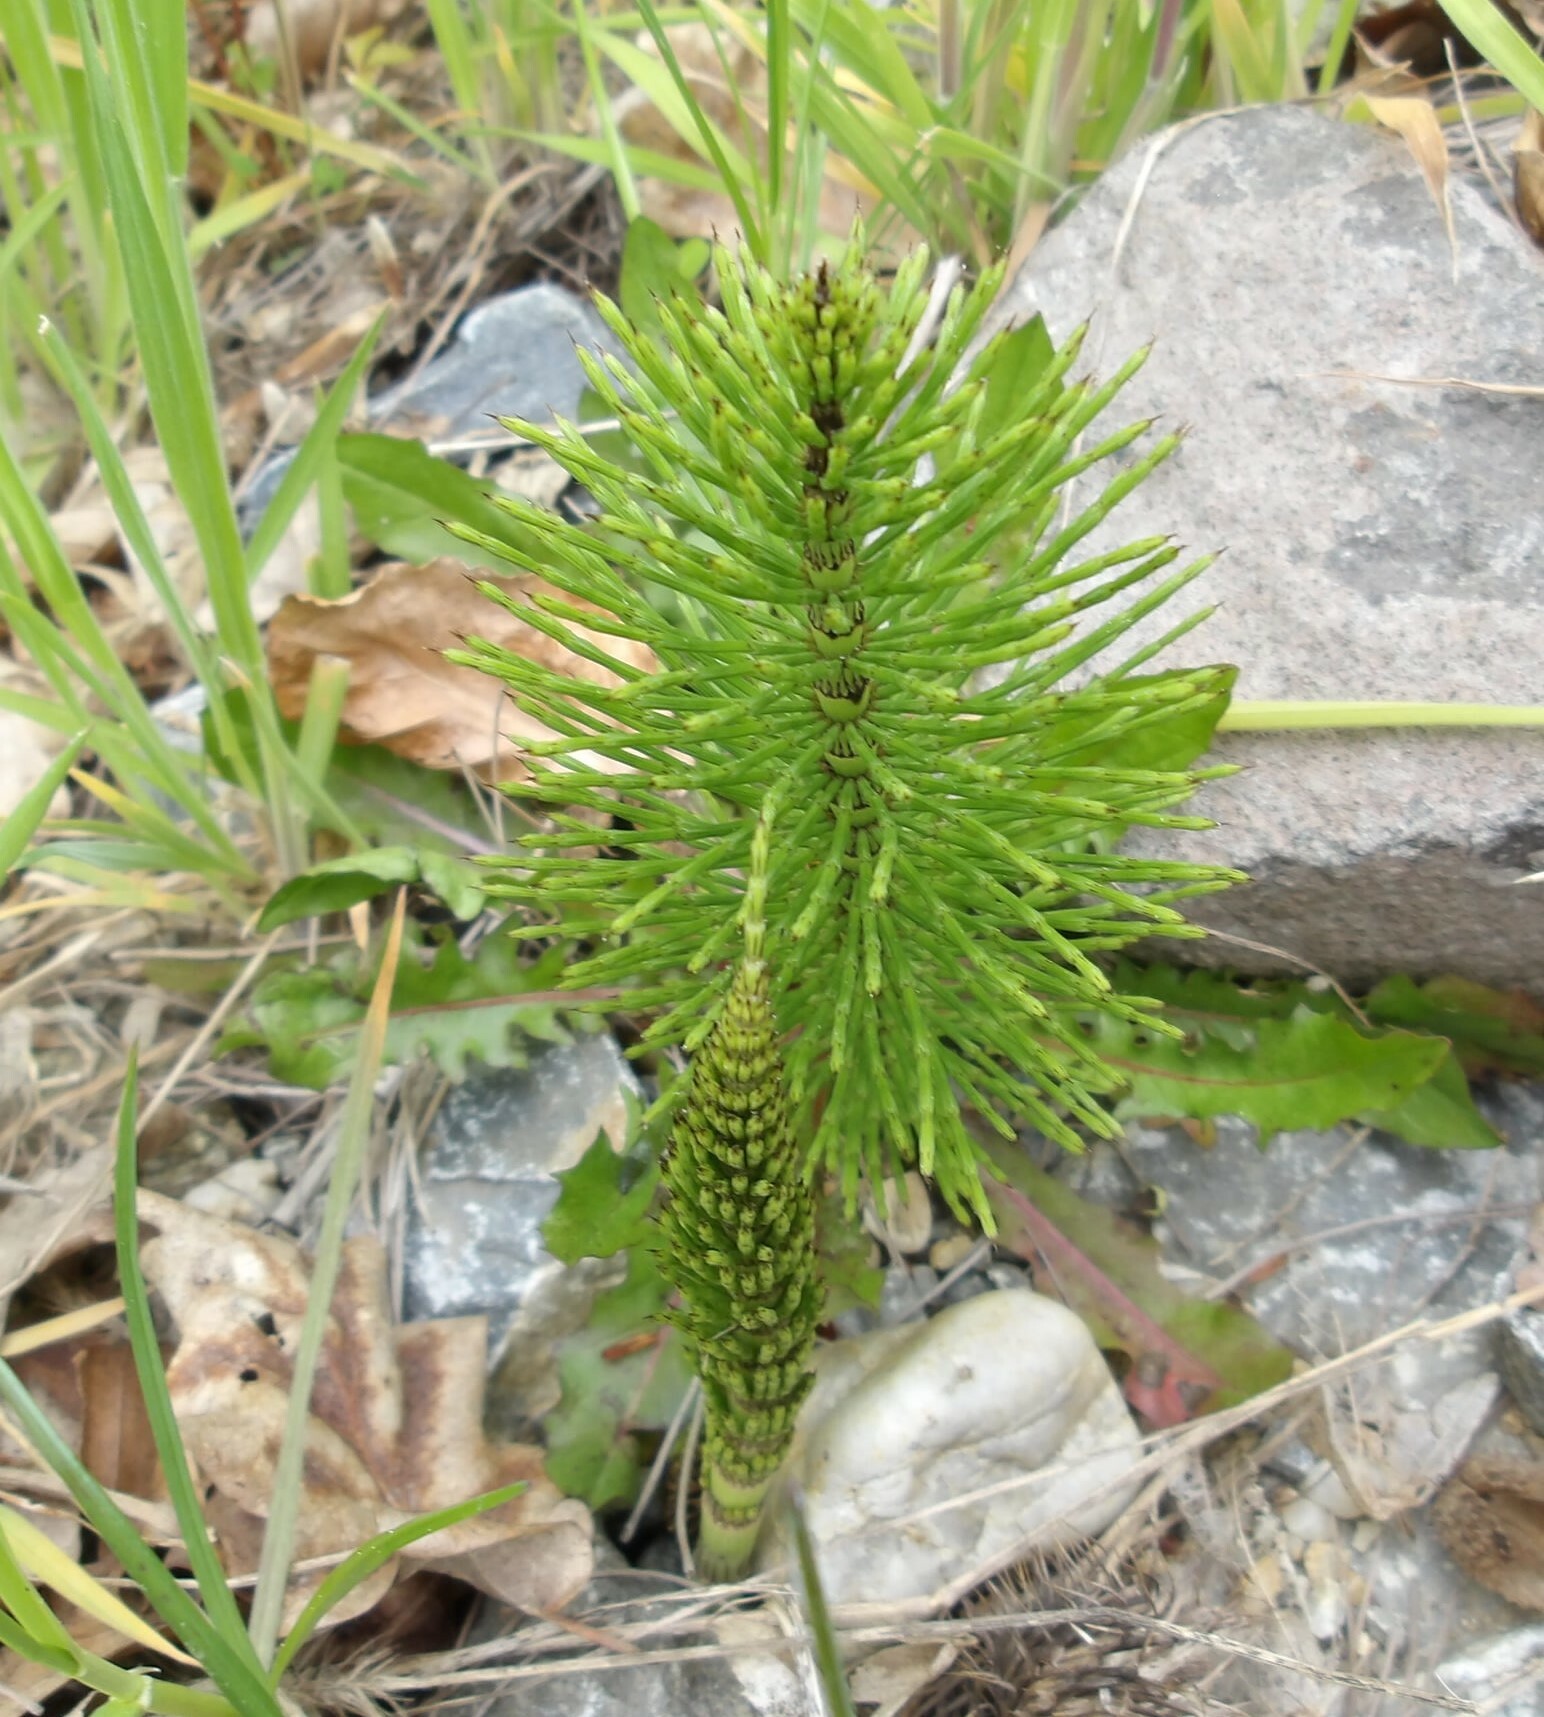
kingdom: Plantae
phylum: Tracheophyta
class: Polypodiopsida
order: Equisetales
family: Equisetaceae
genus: Equisetum
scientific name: Equisetum telmateia
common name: Great horsetail
